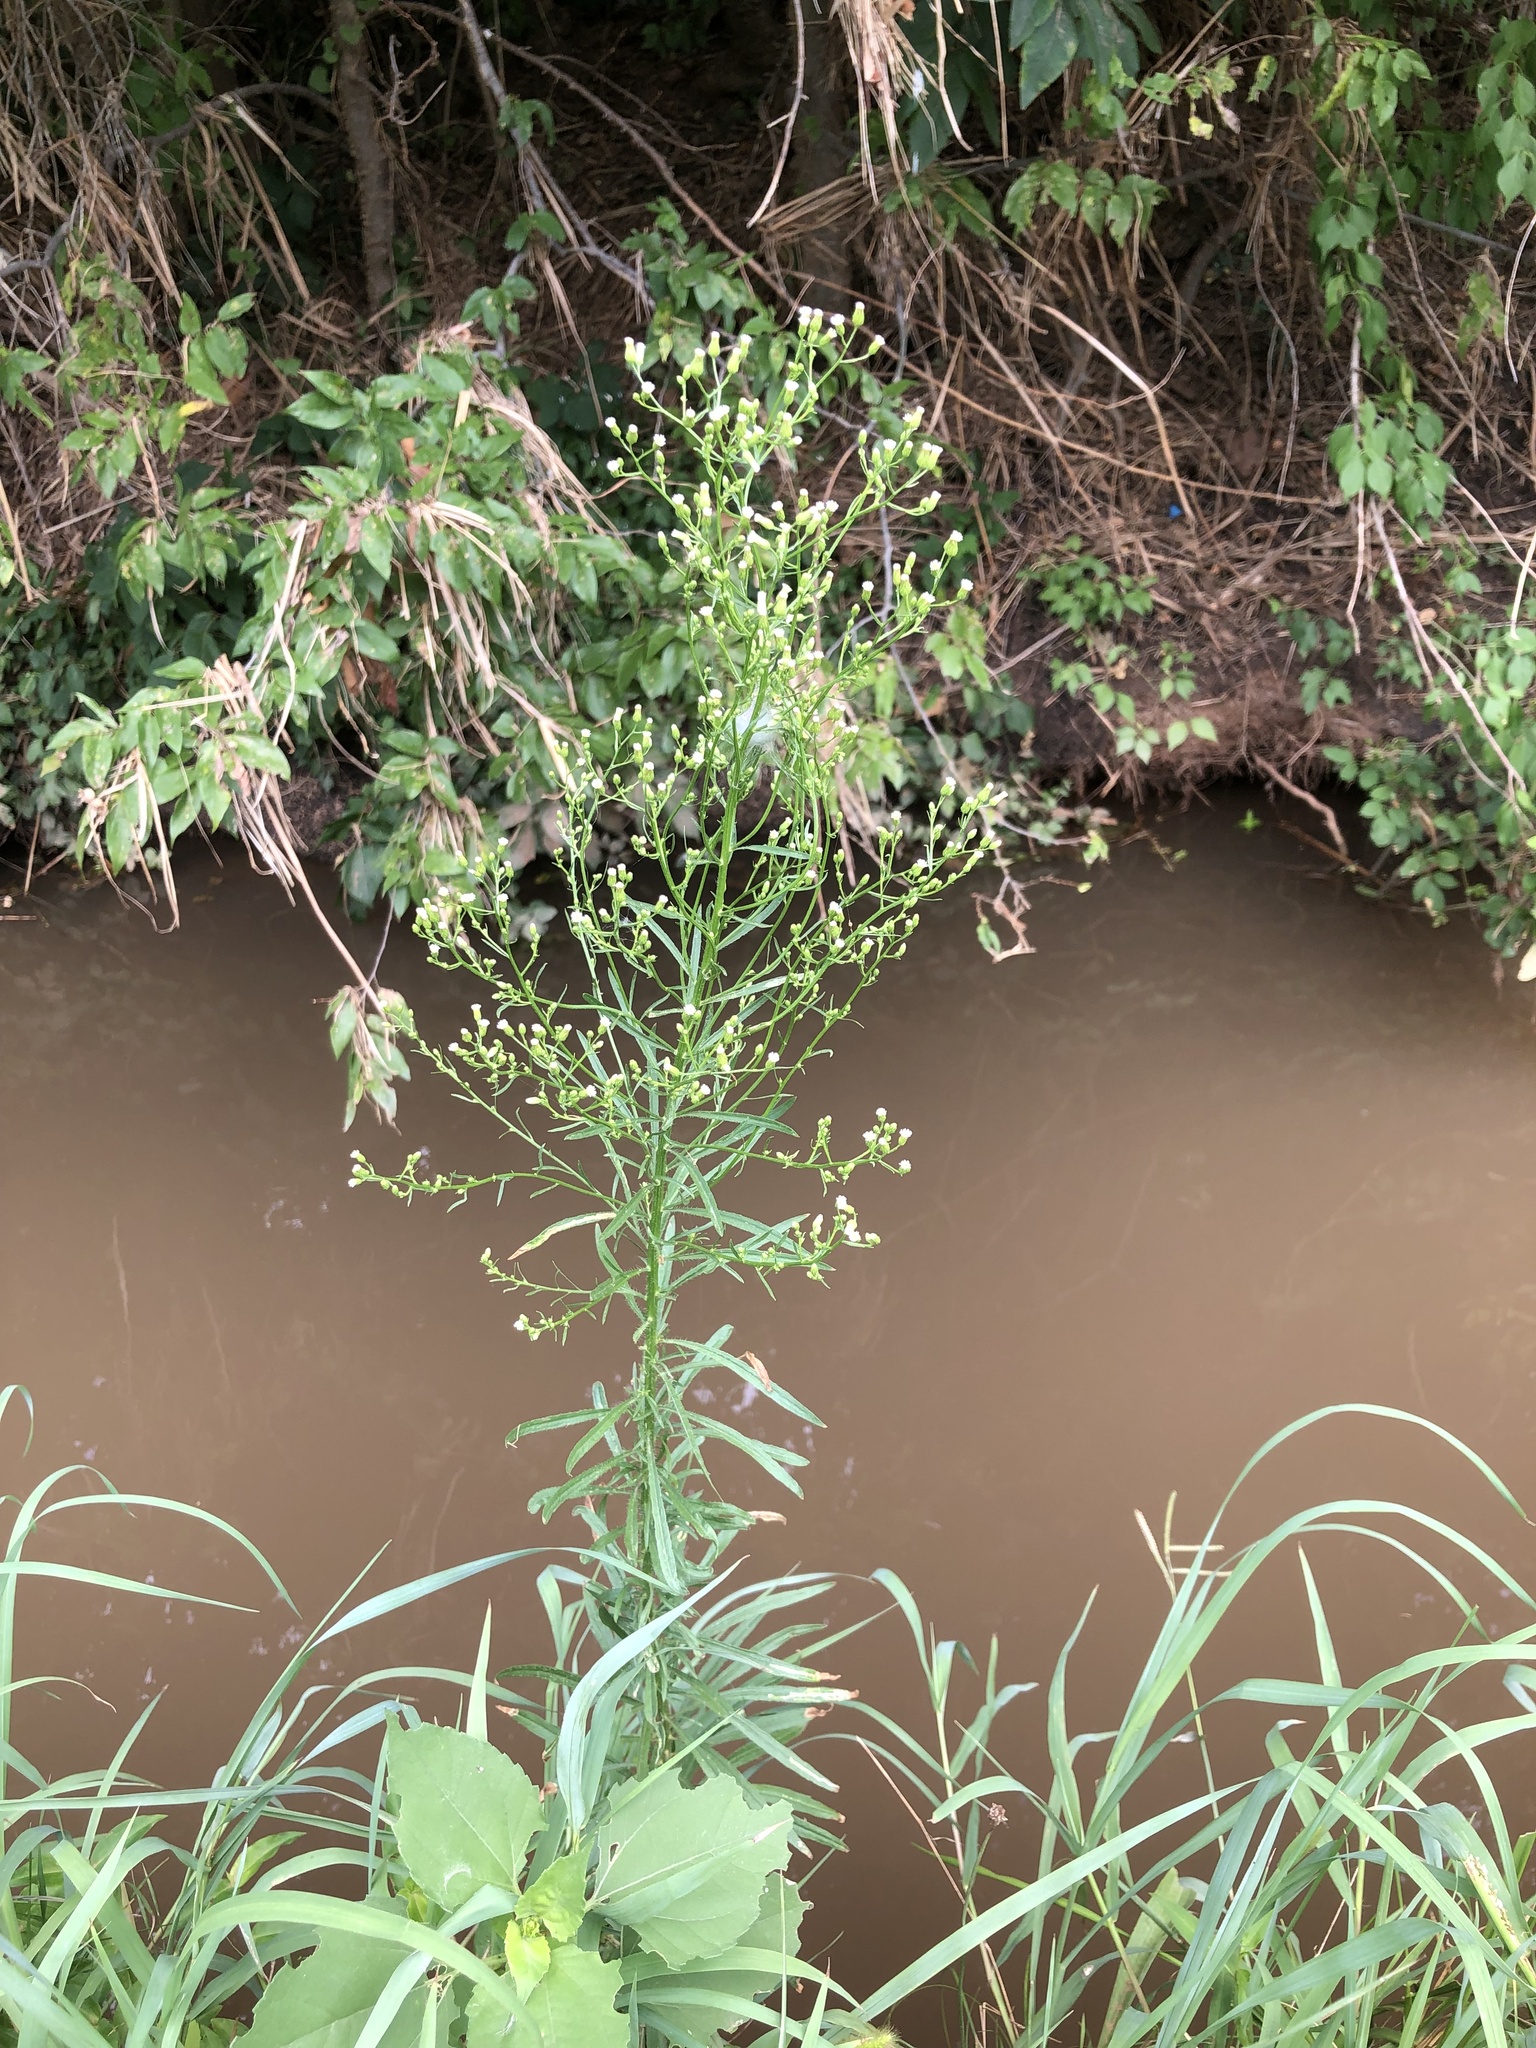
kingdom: Plantae
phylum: Tracheophyta
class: Magnoliopsida
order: Asterales
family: Asteraceae
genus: Erigeron
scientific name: Erigeron canadensis
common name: Canadian fleabane
